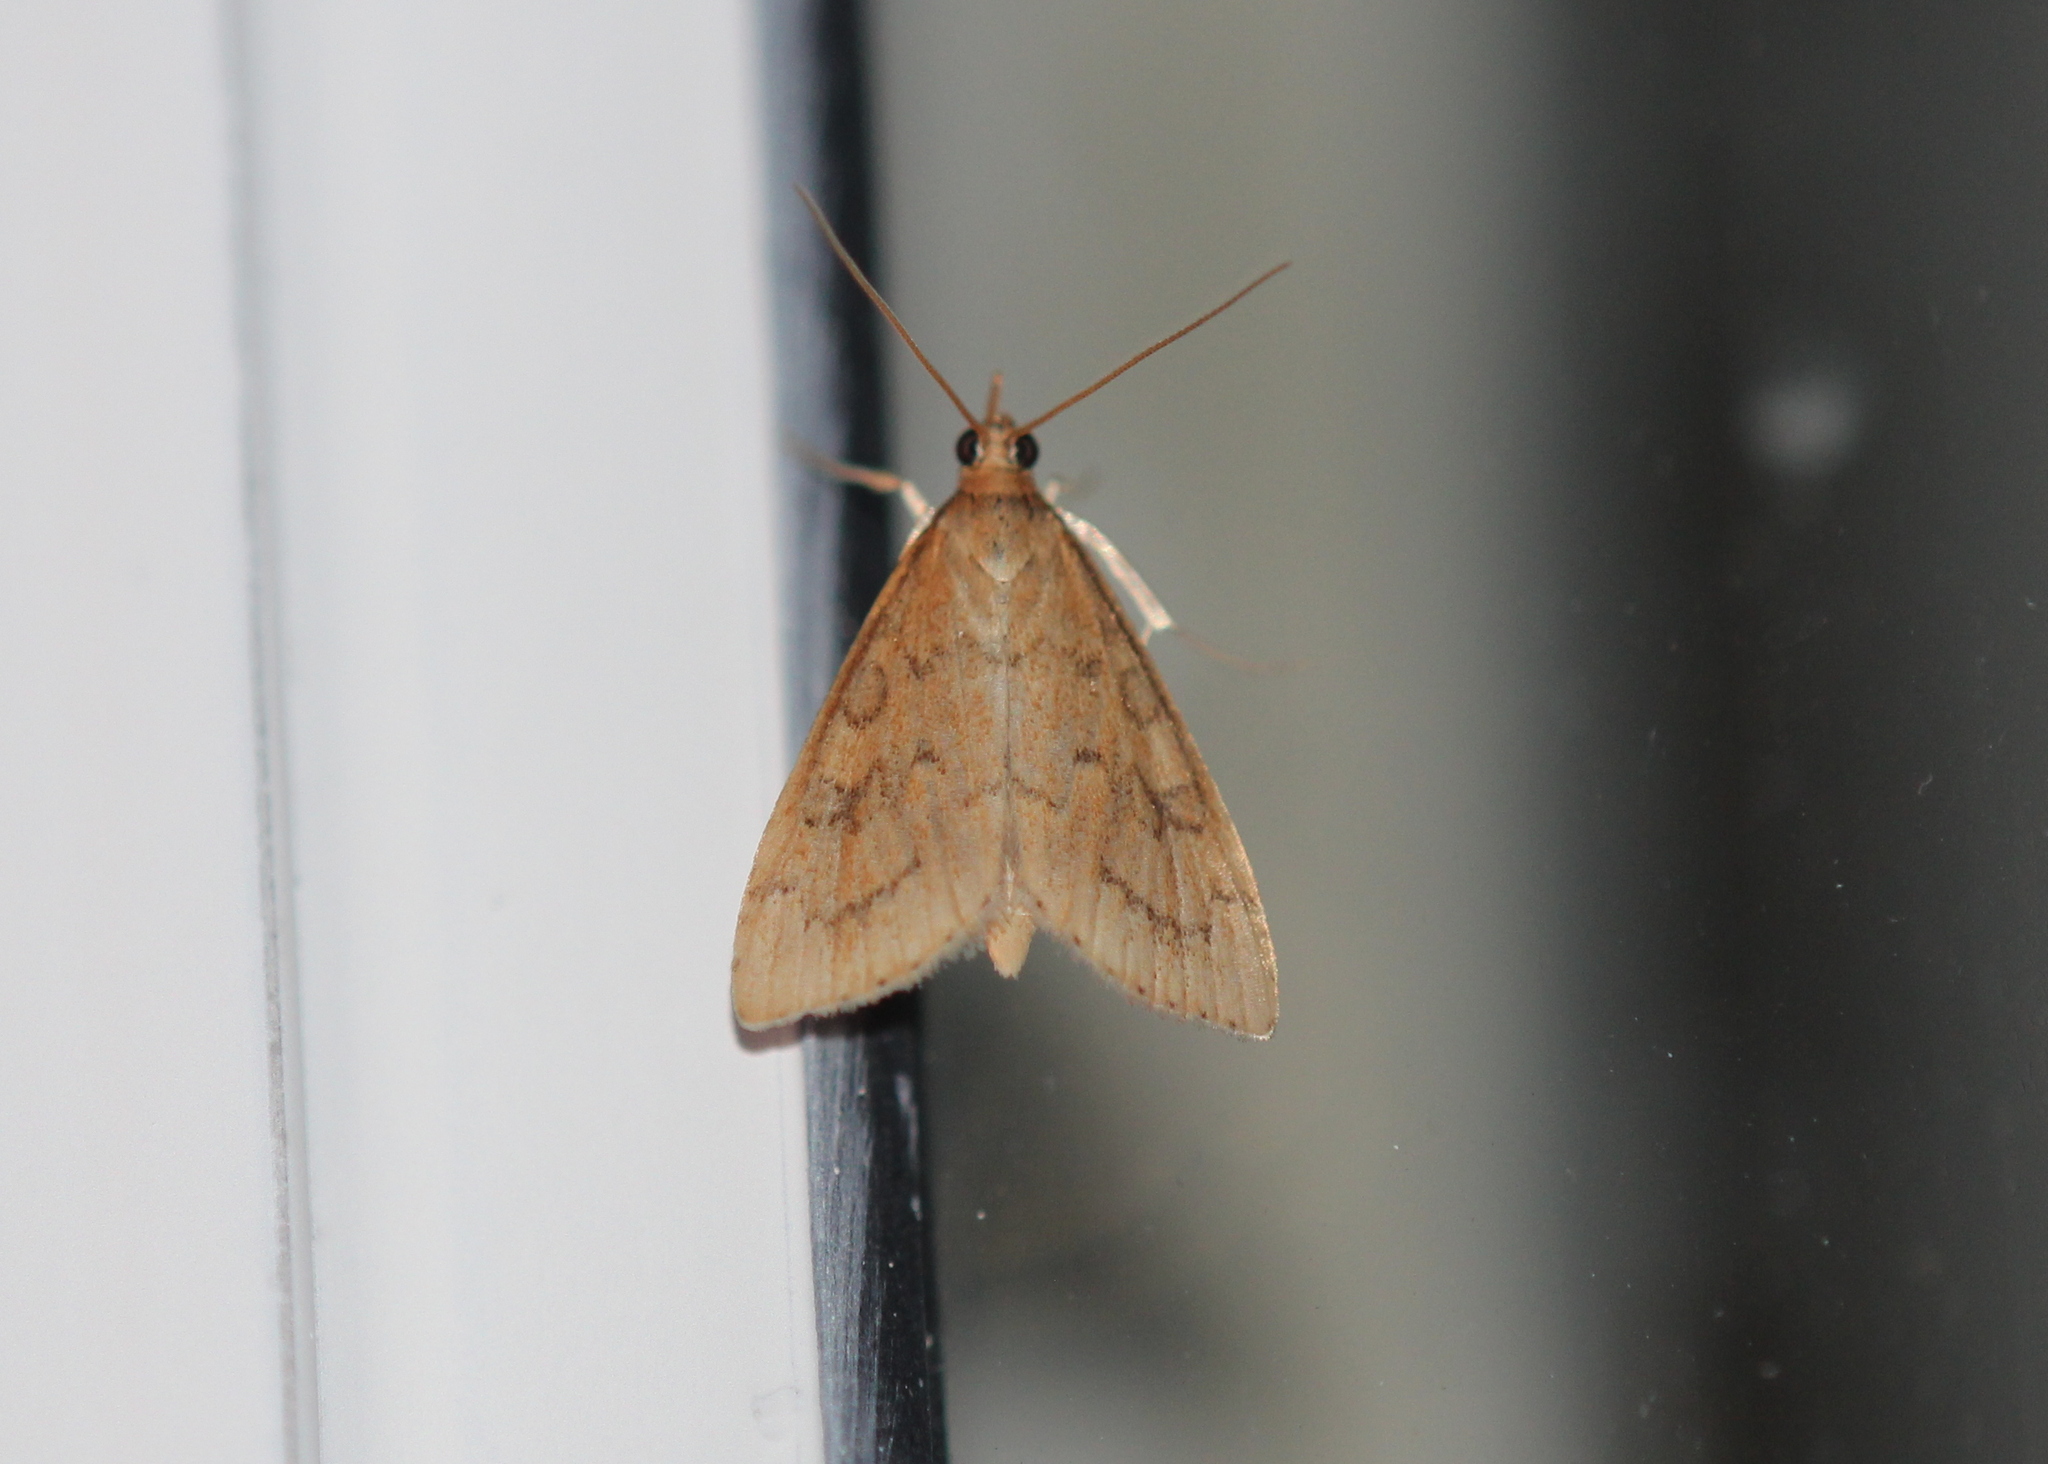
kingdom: Animalia
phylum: Arthropoda
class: Insecta
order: Lepidoptera
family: Crambidae
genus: Udea
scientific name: Udea rubigalis
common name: Celery leaftier moth
